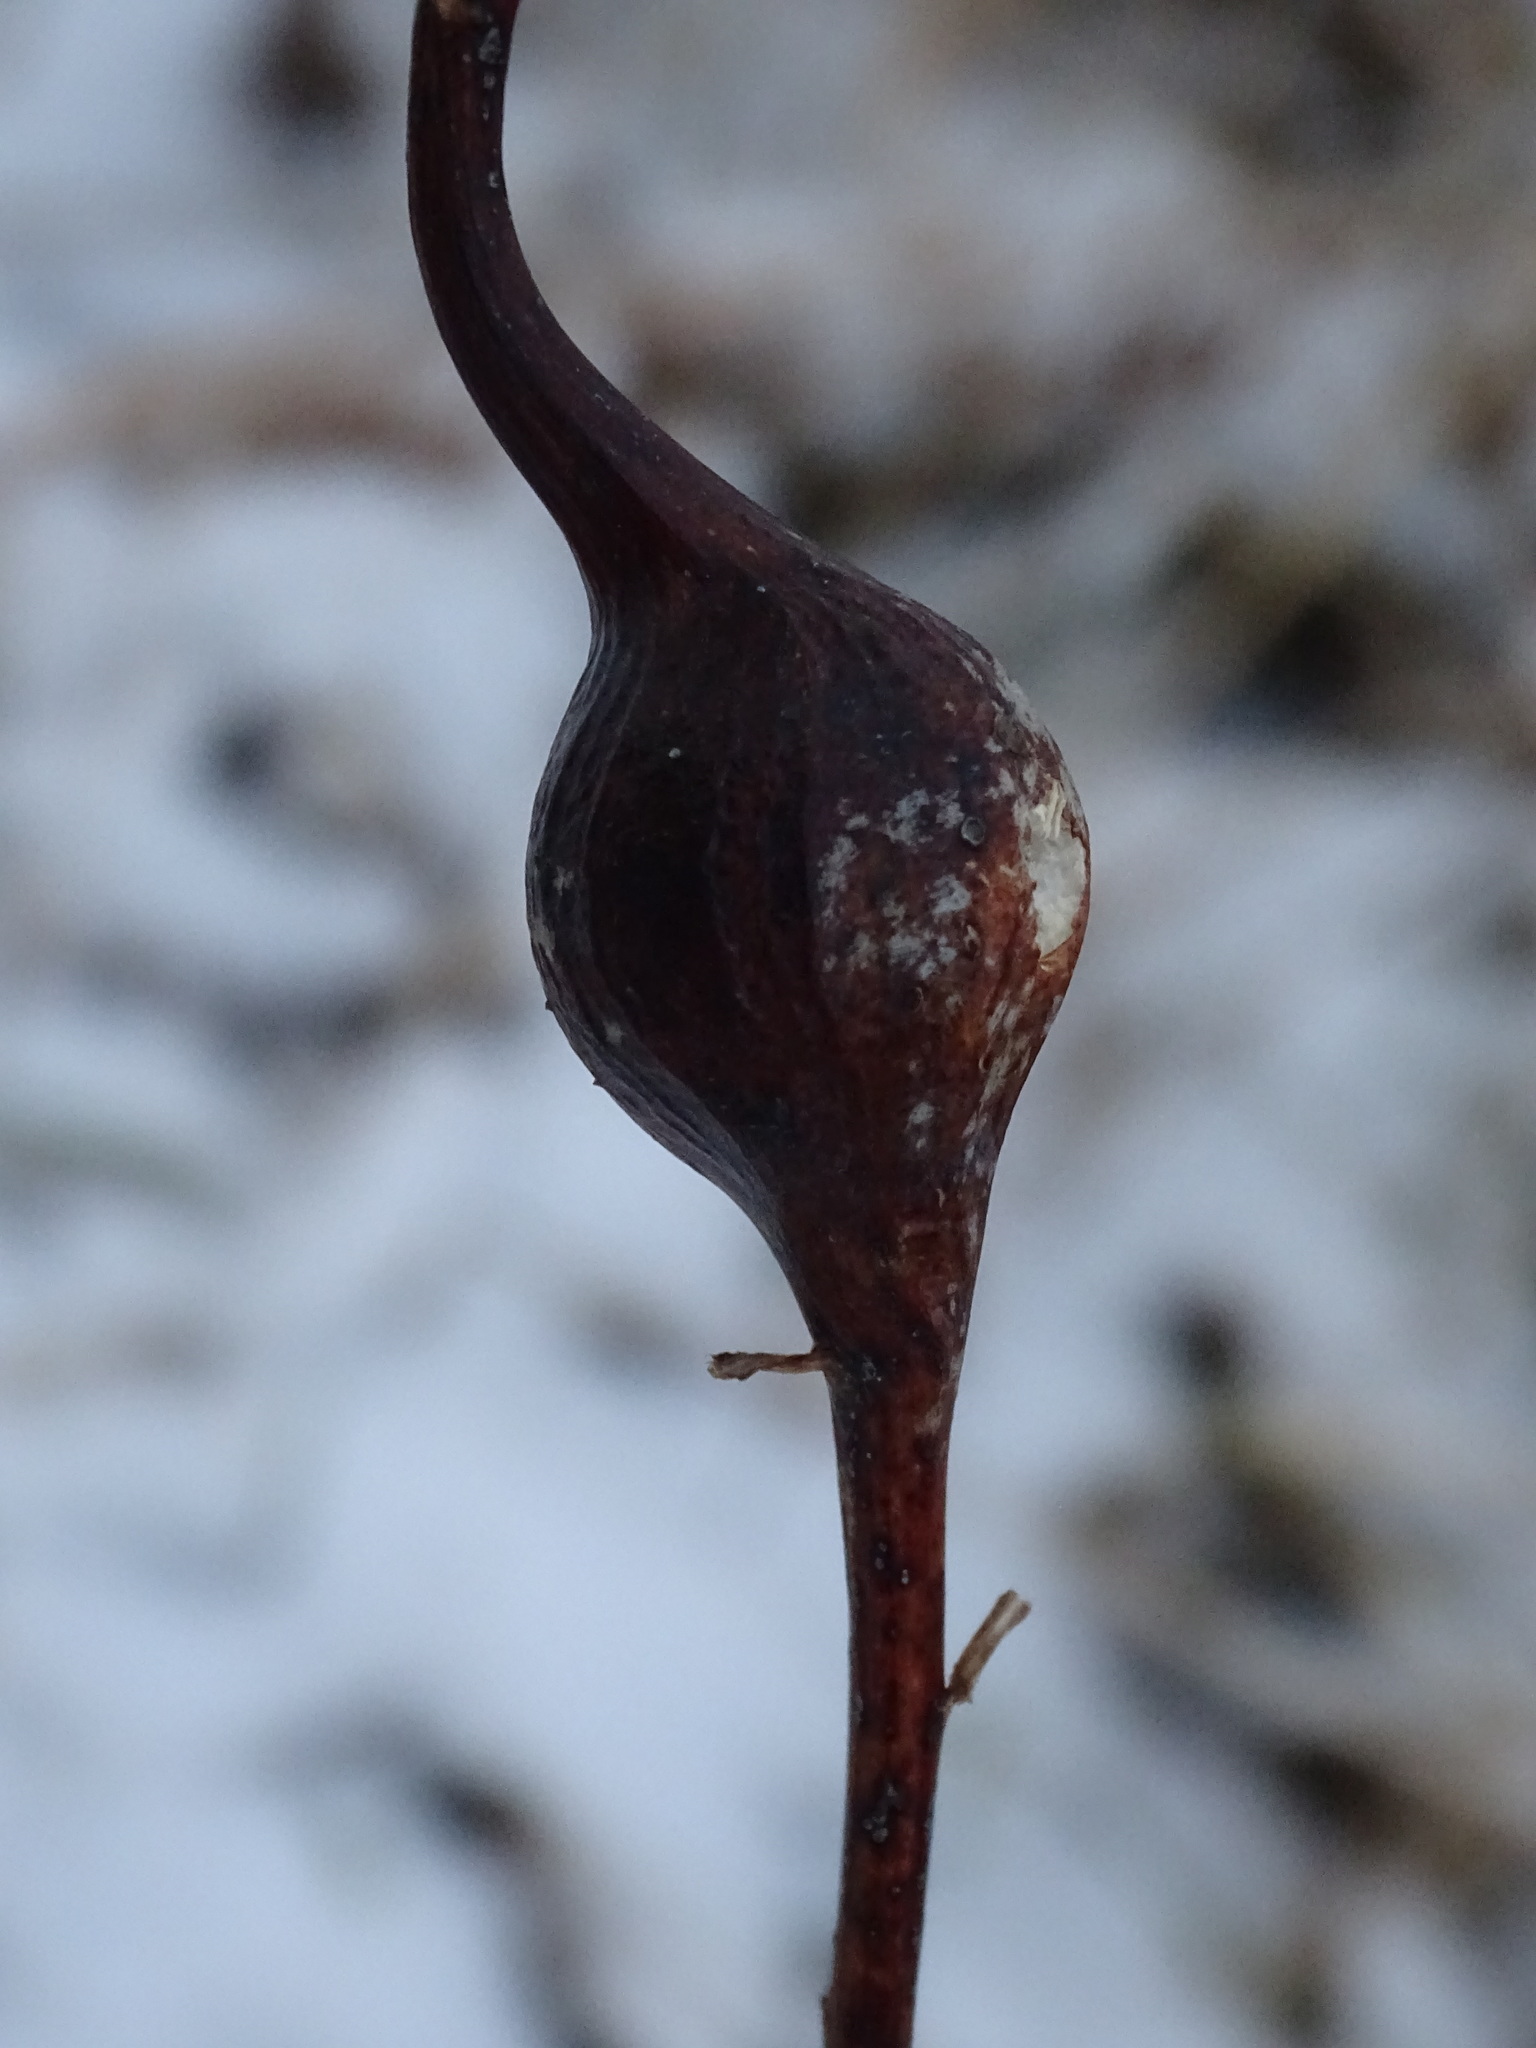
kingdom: Animalia
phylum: Arthropoda
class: Insecta
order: Diptera
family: Tephritidae
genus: Eurosta
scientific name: Eurosta solidaginis
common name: Goldenrod gall fly
